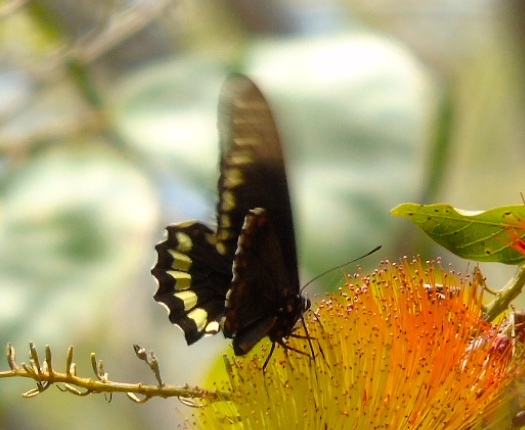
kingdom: Animalia
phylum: Arthropoda
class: Insecta
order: Lepidoptera
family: Papilionidae
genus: Battus
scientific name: Battus polydamas
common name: Polydamas swallowtail
